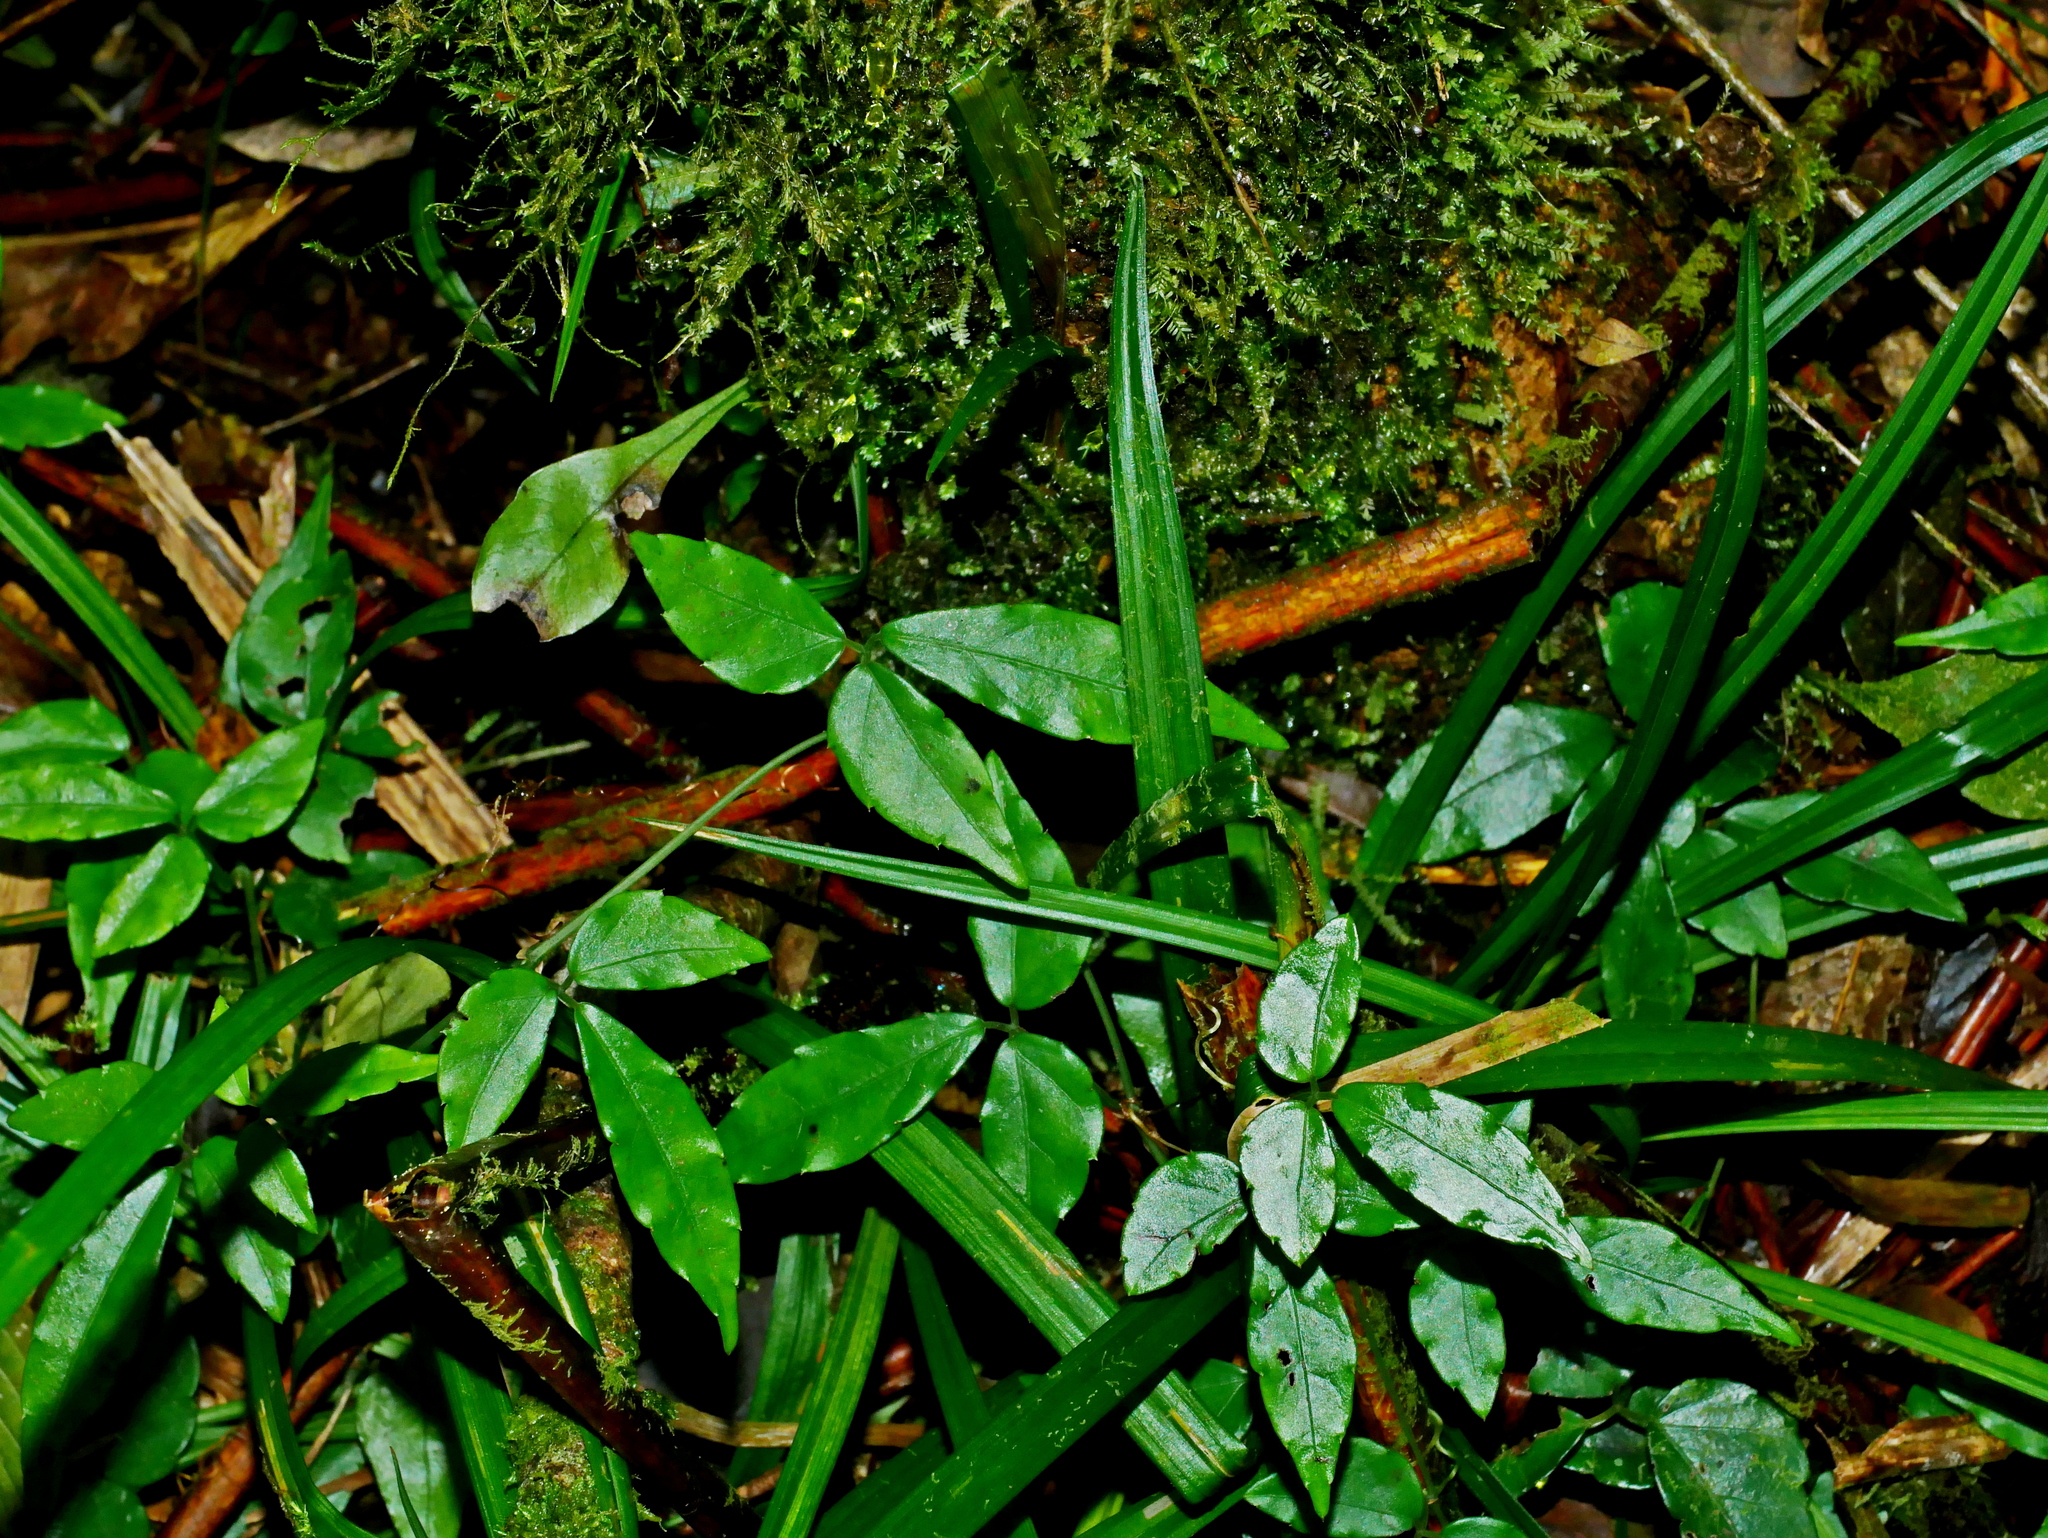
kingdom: Plantae
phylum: Tracheophyta
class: Magnoliopsida
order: Vitales
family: Vitaceae
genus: Tetrastigma
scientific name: Tetrastigma hemsleyanum
